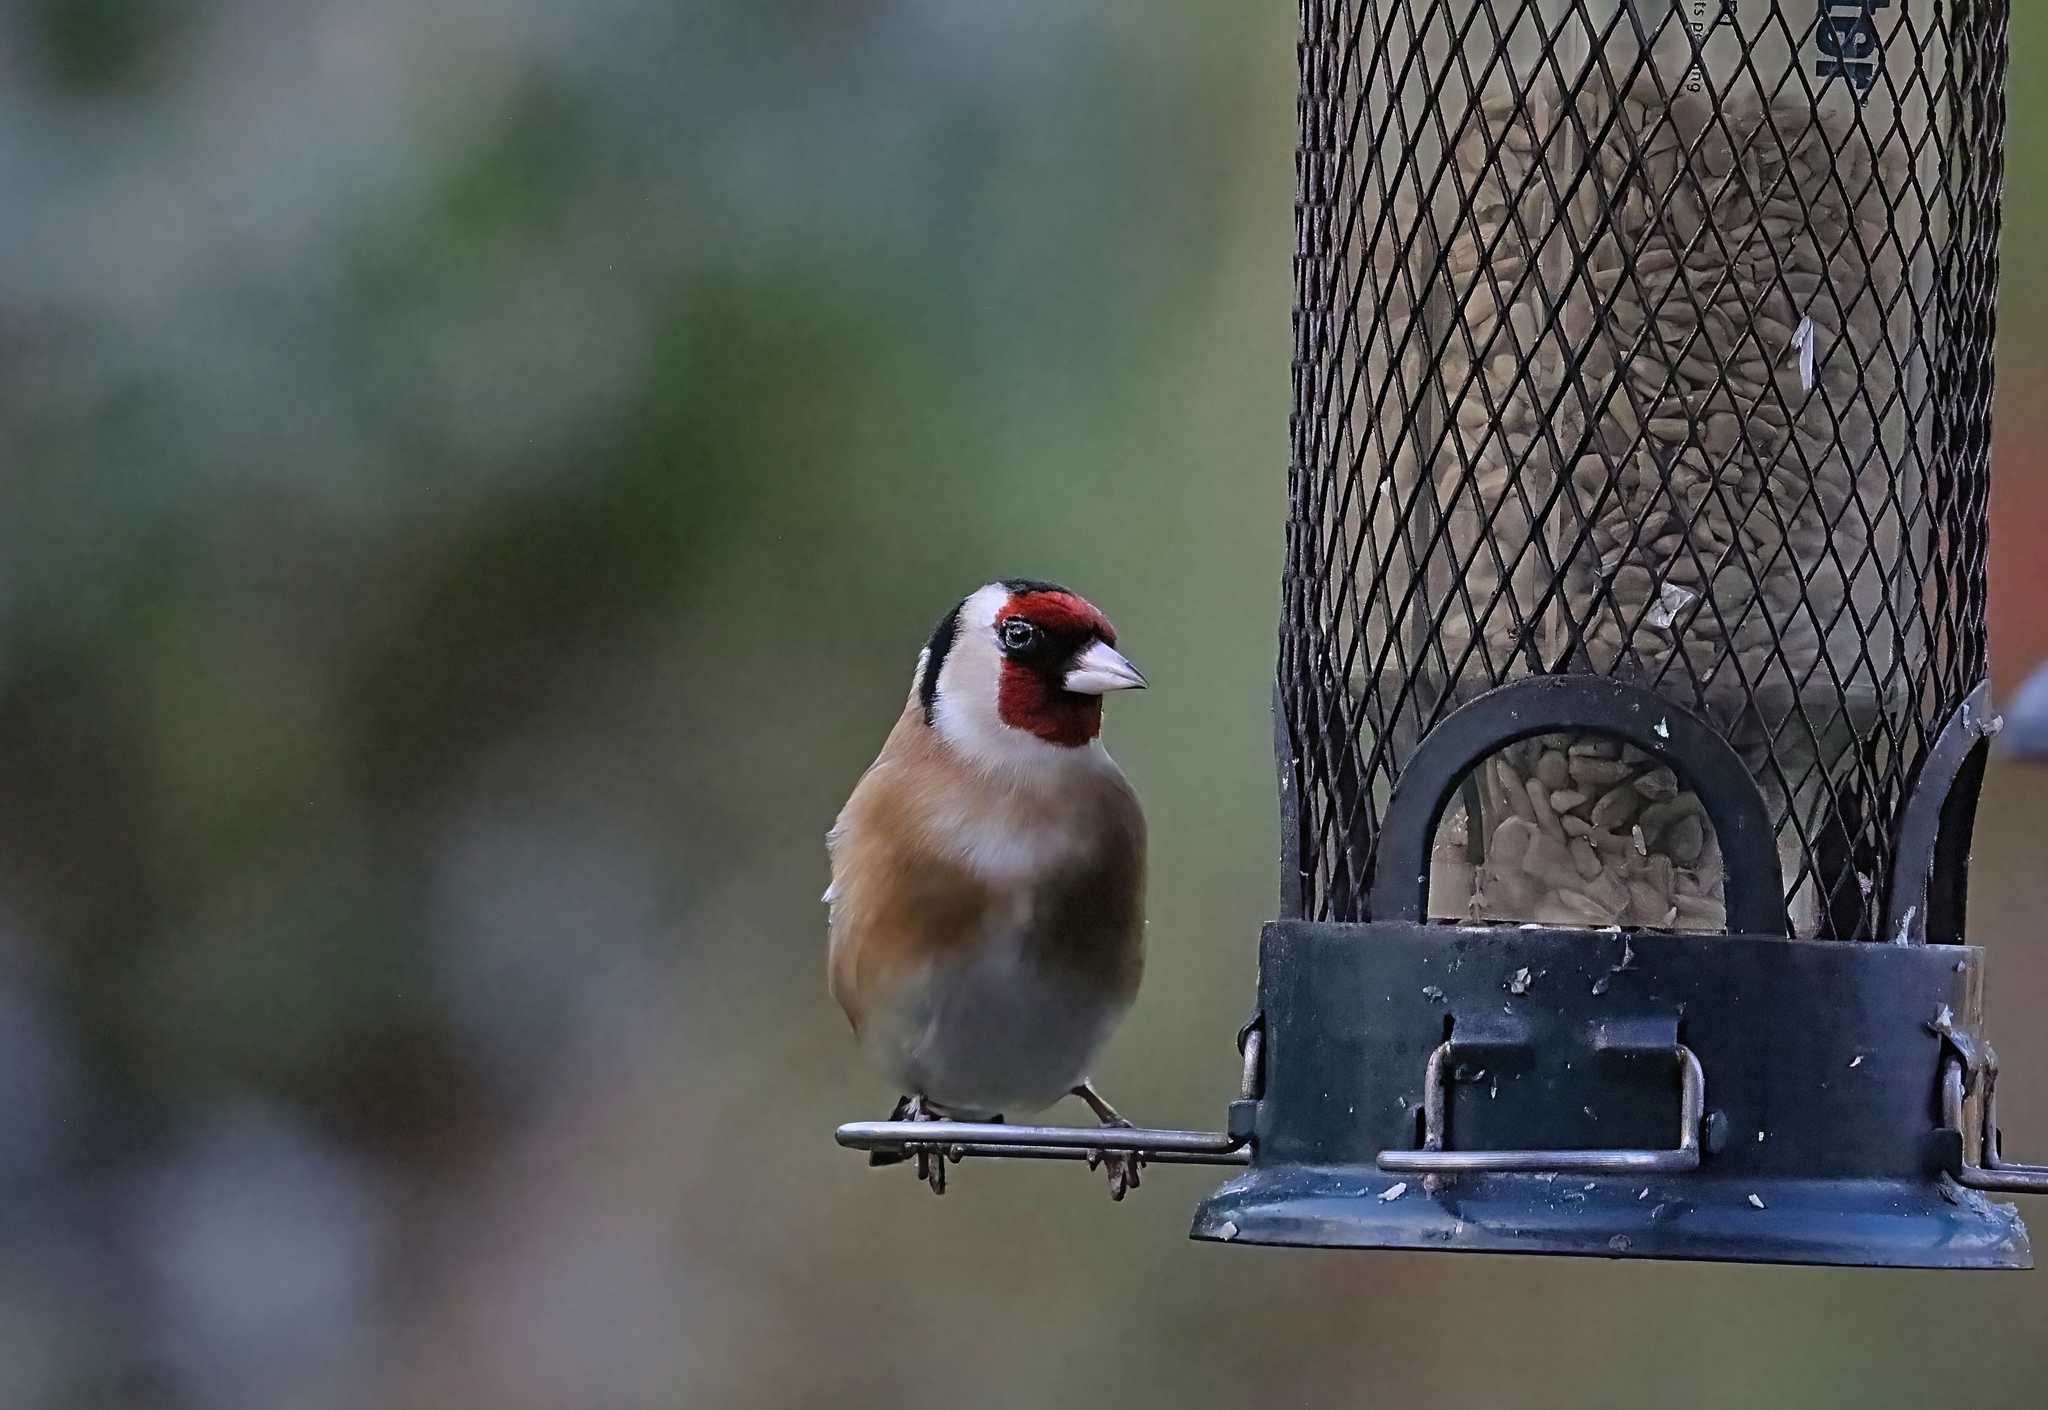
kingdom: Animalia
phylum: Chordata
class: Aves
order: Passeriformes
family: Fringillidae
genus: Carduelis
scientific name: Carduelis carduelis
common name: European goldfinch
